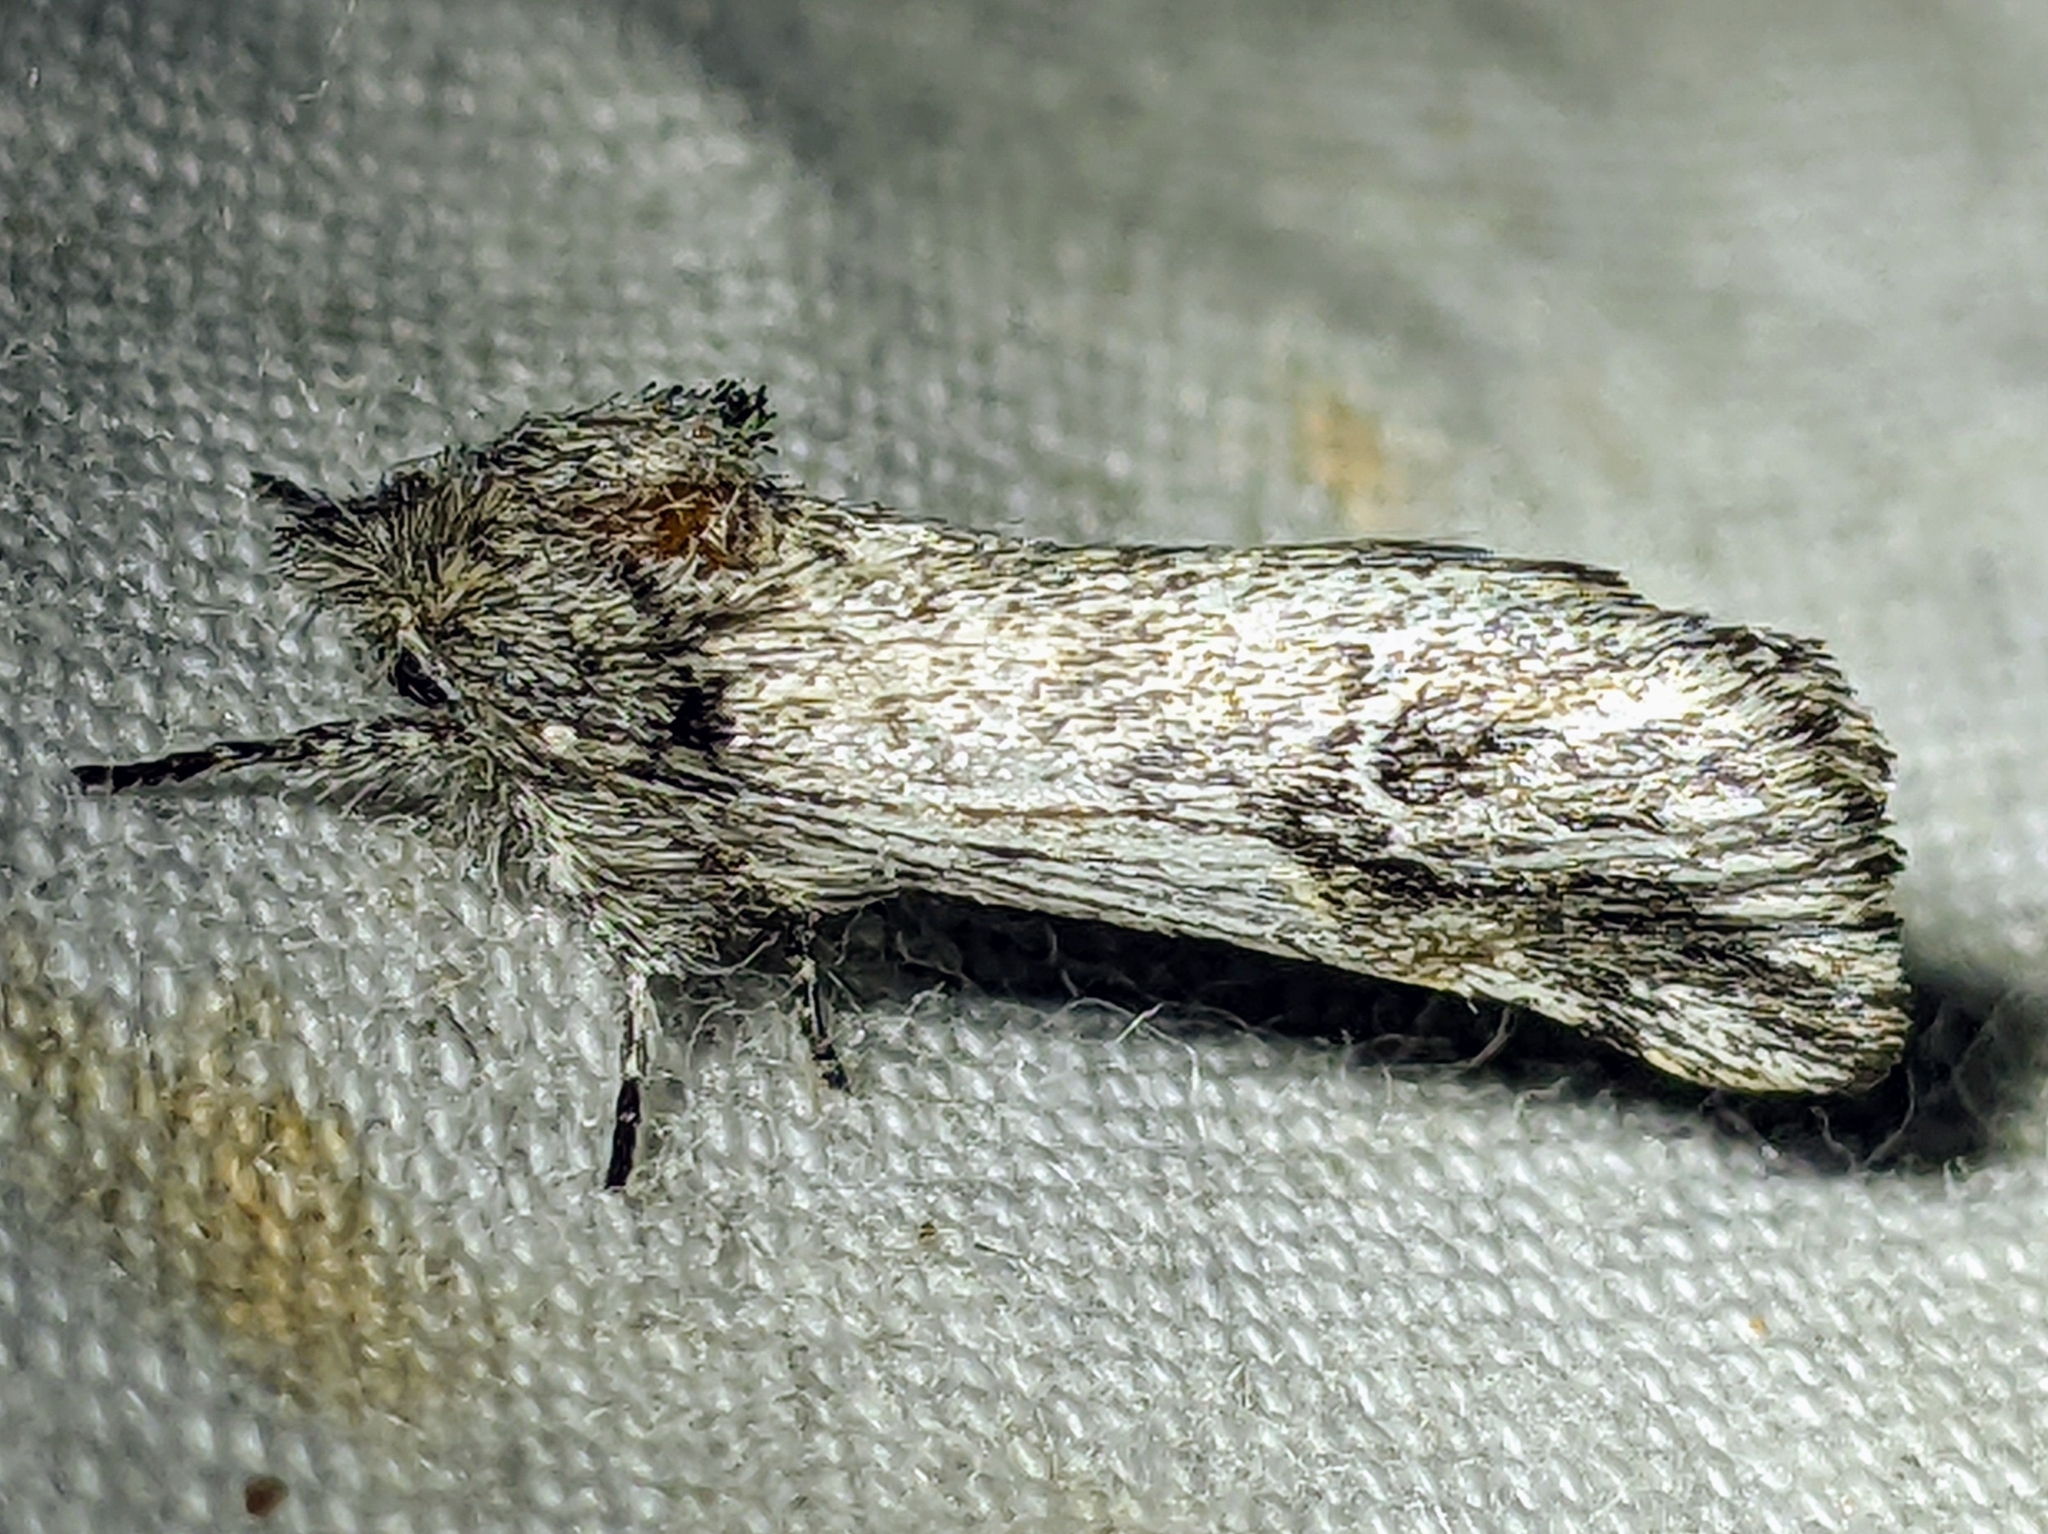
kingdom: Animalia
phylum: Arthropoda
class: Insecta
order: Lepidoptera
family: Notodontidae
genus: Ursia
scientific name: Ursia noctuiformis
